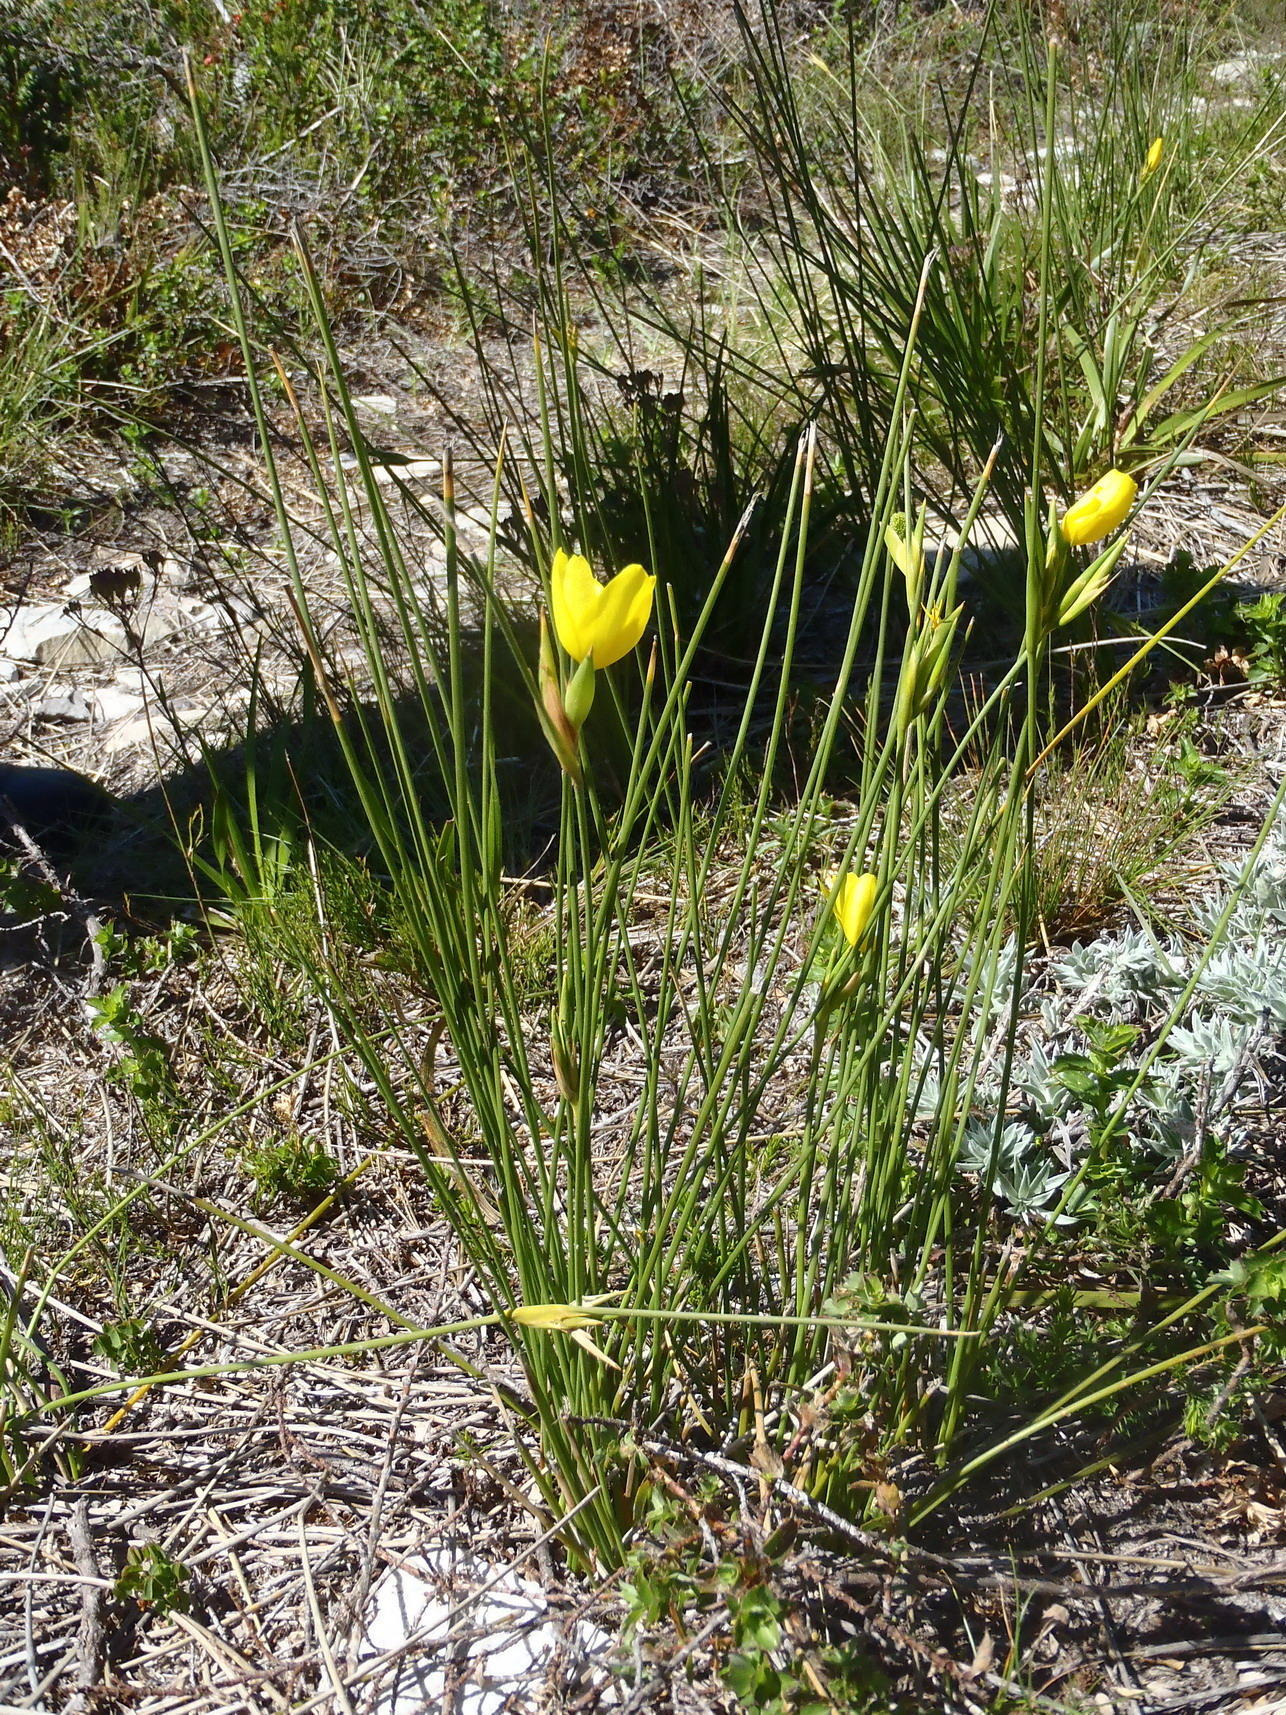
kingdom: Plantae
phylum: Tracheophyta
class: Liliopsida
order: Asparagales
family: Iridaceae
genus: Bobartia
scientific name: Bobartia aphylla
